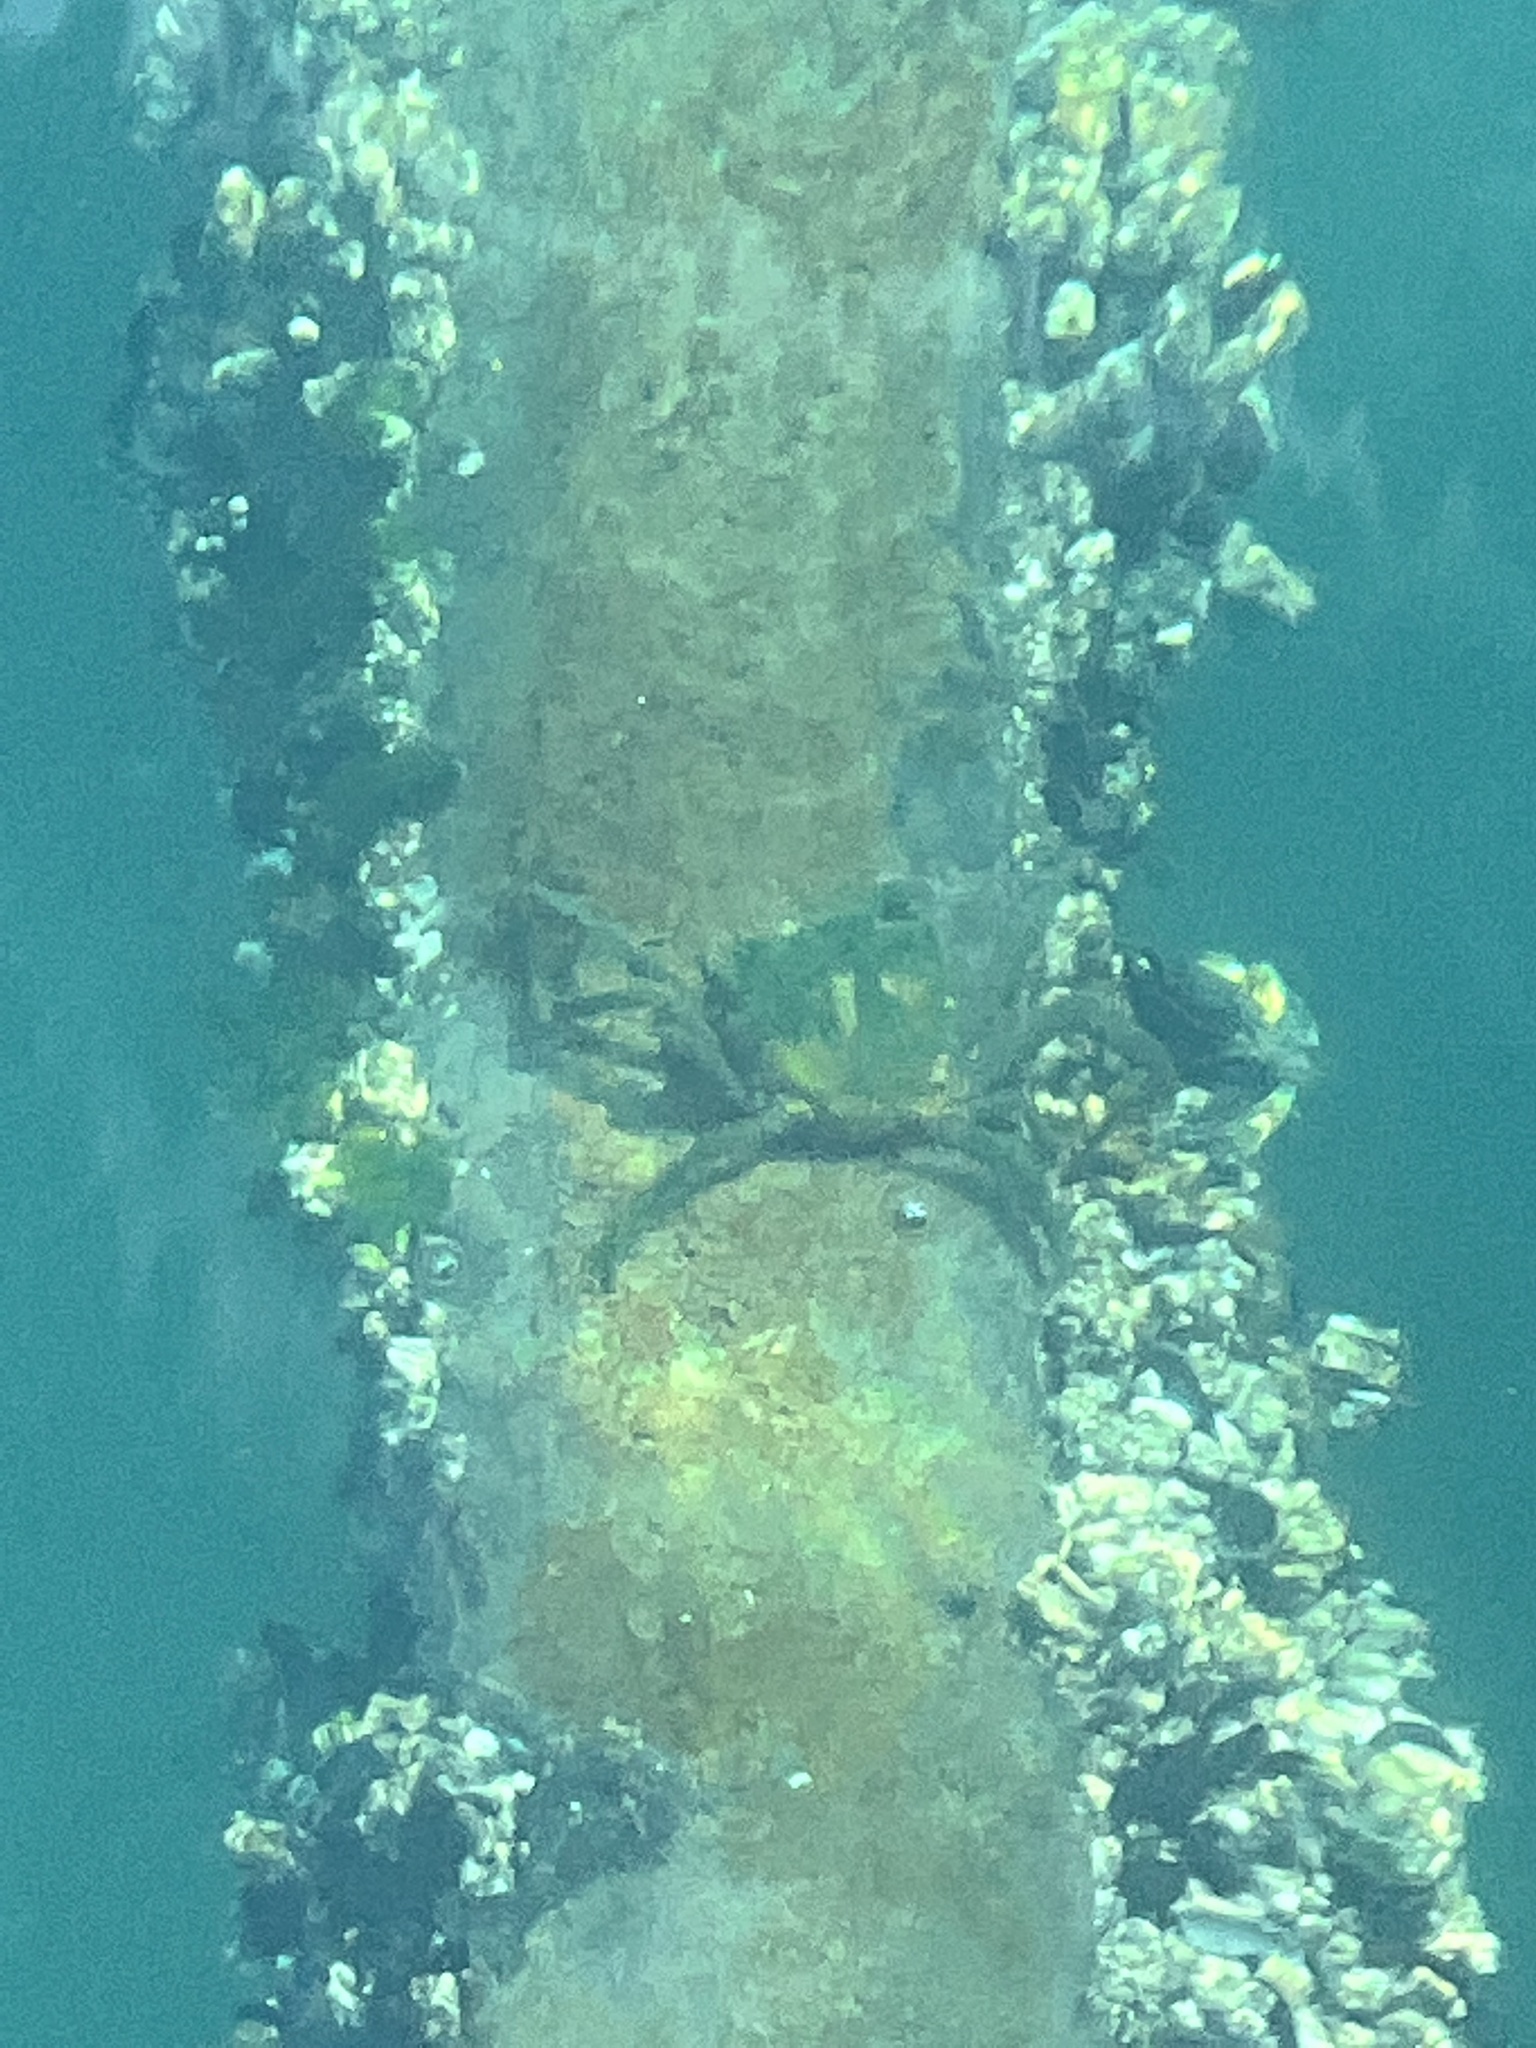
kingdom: Animalia
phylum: Arthropoda
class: Malacostraca
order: Decapoda
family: Epialtidae
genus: Pugettia
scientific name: Pugettia producta
